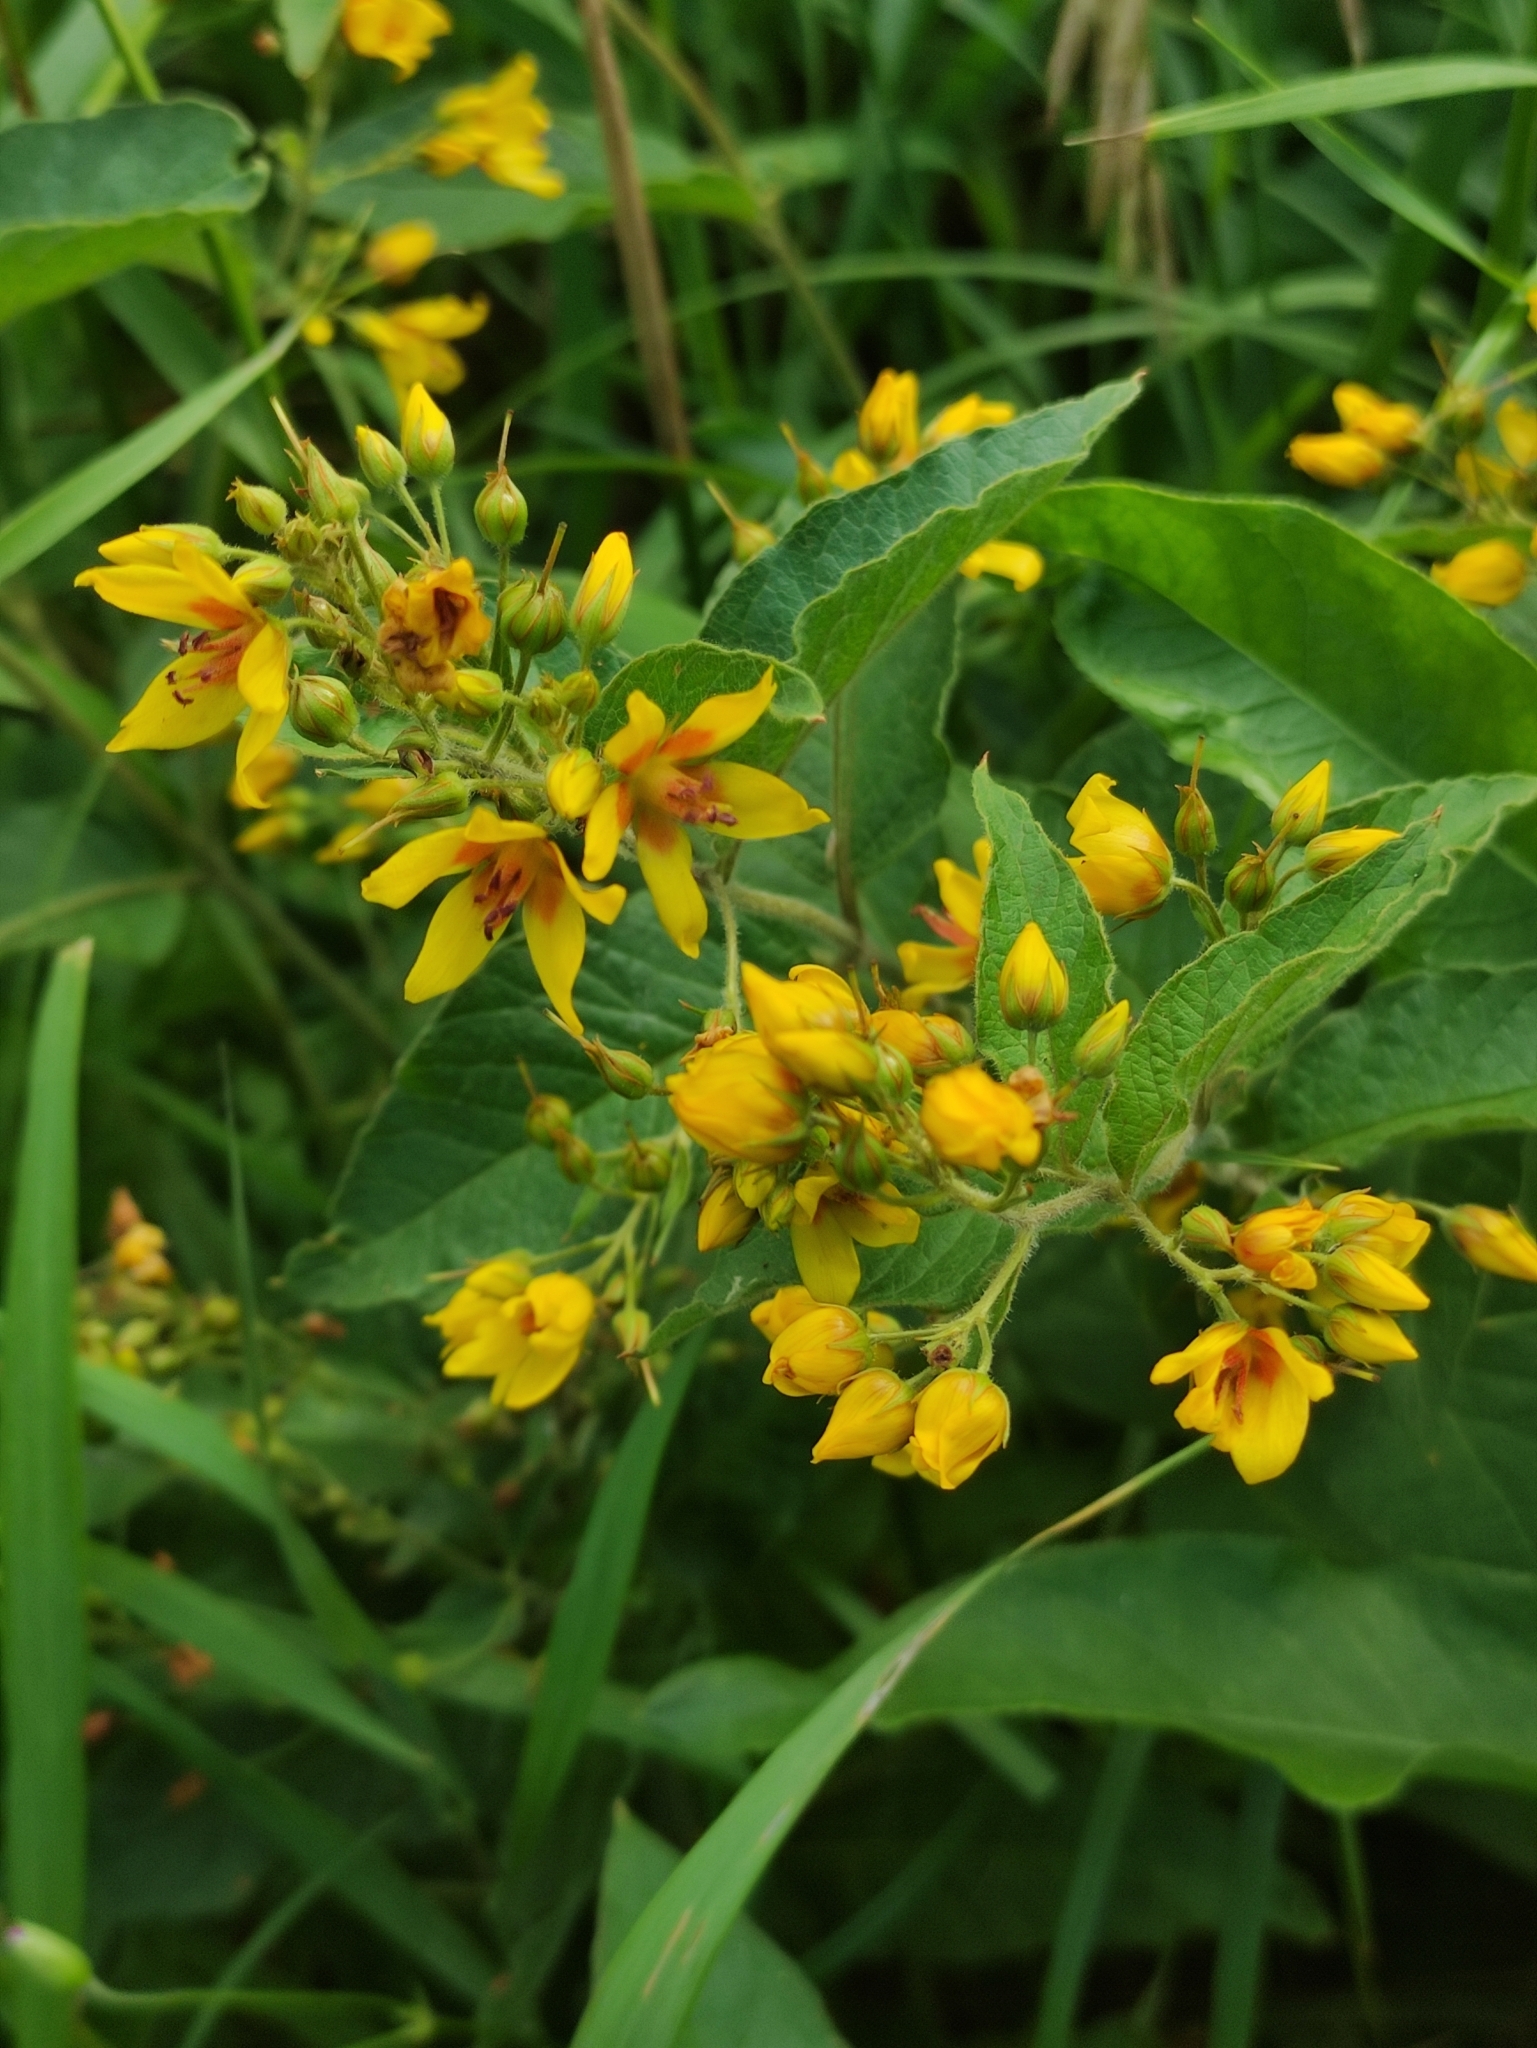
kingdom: Plantae
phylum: Tracheophyta
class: Magnoliopsida
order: Ericales
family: Primulaceae
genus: Lysimachia
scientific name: Lysimachia vulgaris
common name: Yellow loosestrife
